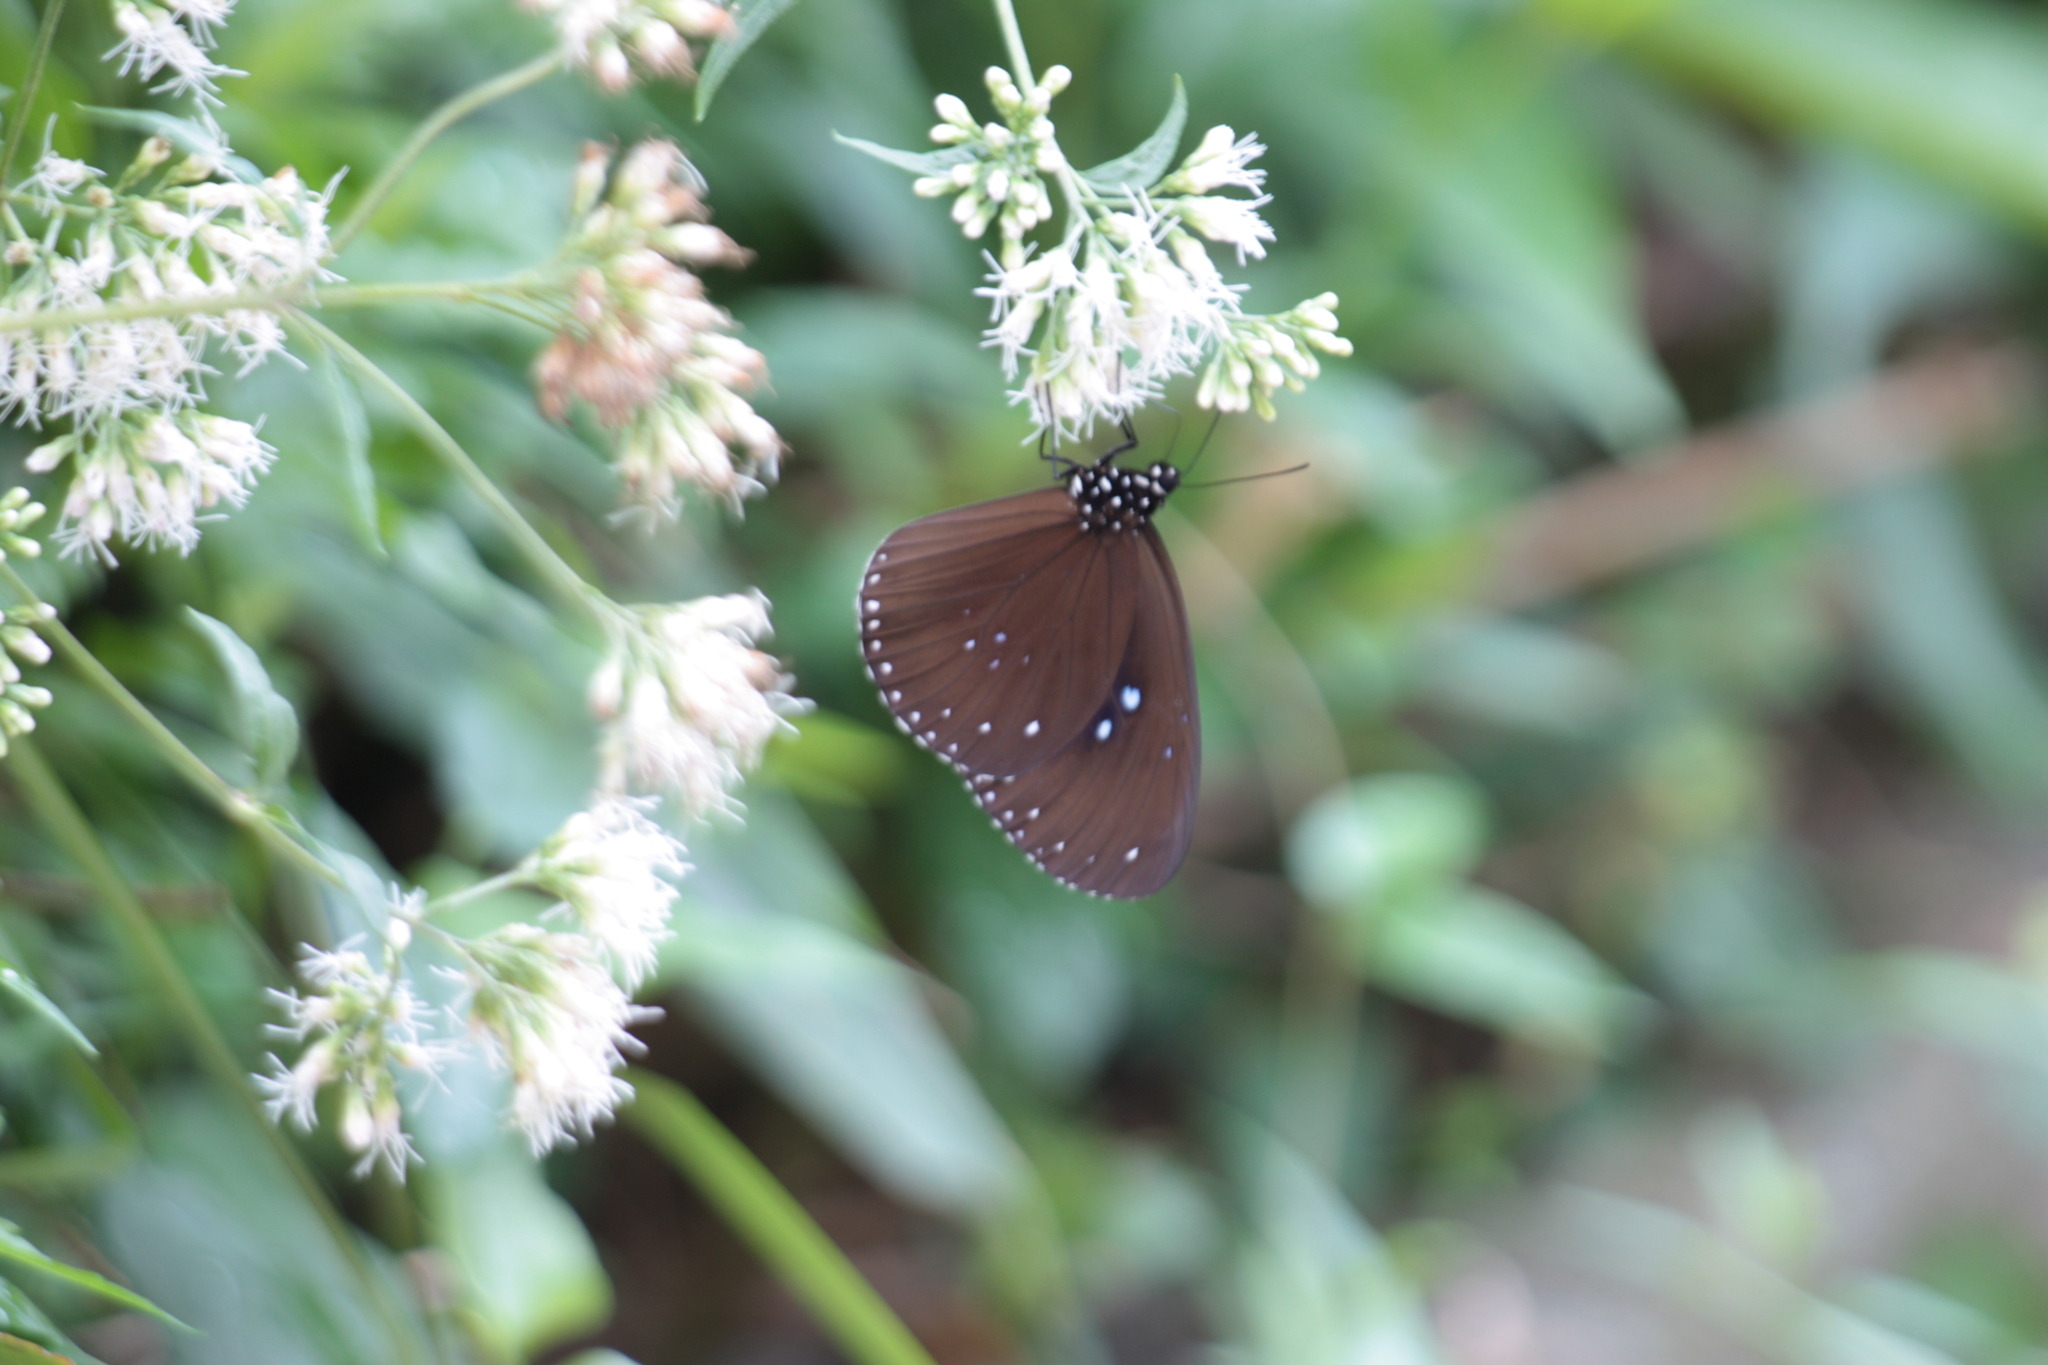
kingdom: Animalia
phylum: Arthropoda
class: Insecta
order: Lepidoptera
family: Nymphalidae
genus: Euploea
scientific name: Euploea sylvester
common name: Double-branded crow butterfly
